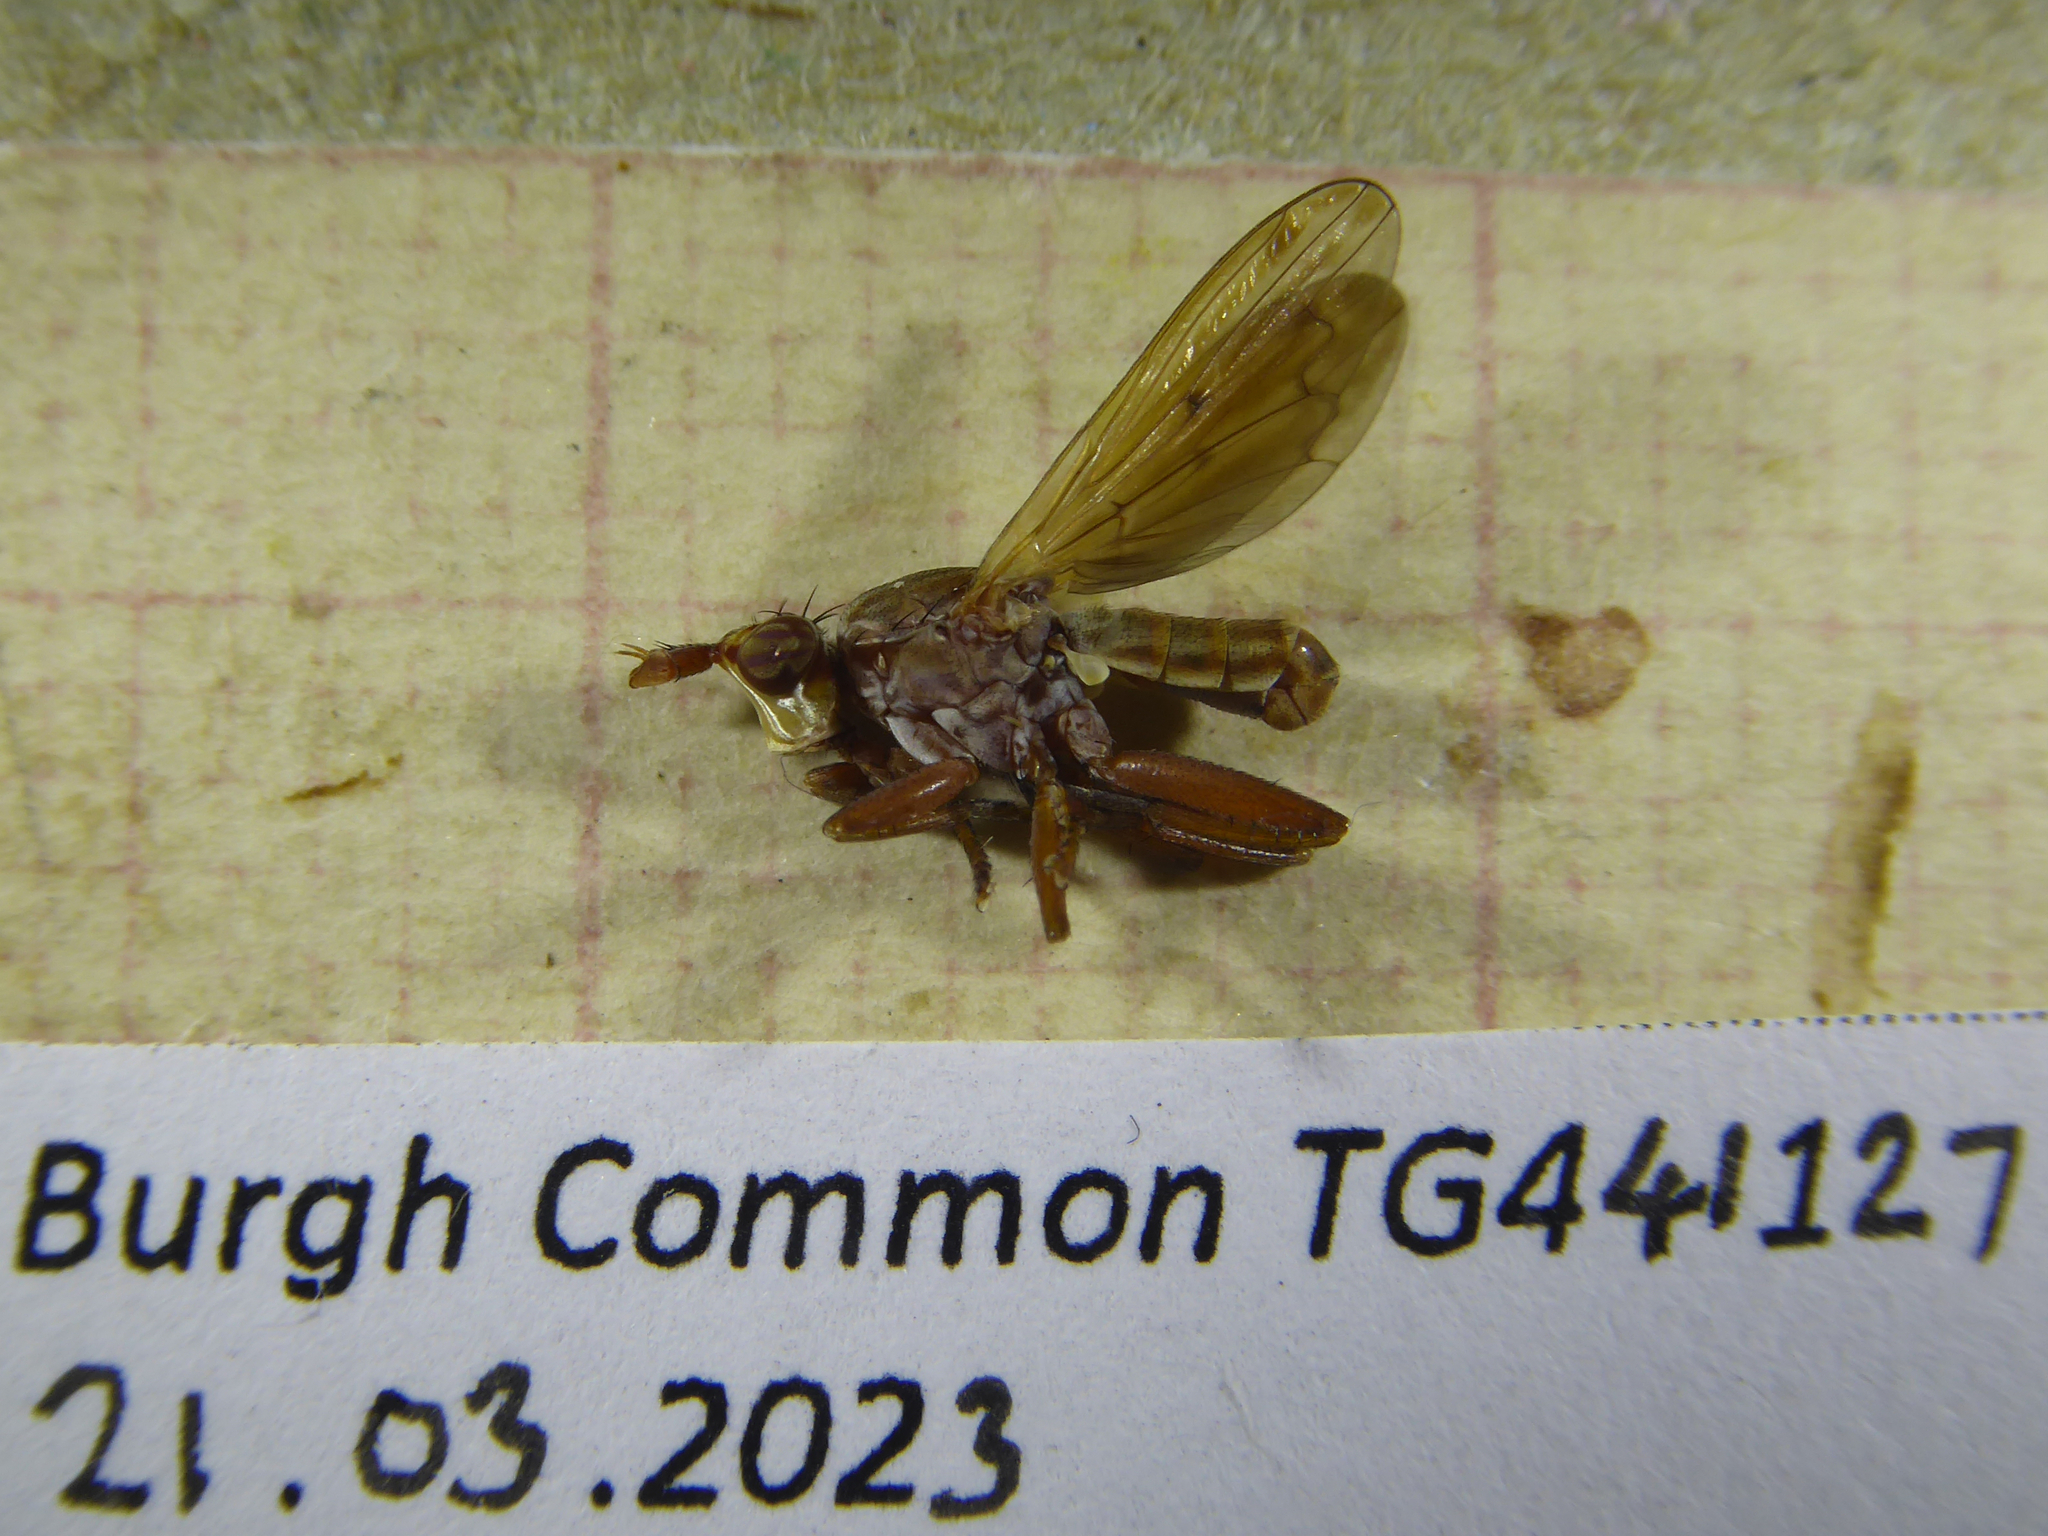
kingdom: Animalia
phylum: Arthropoda
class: Insecta
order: Diptera
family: Sciomyzidae
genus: Elgiva
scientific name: Elgiva solicita
